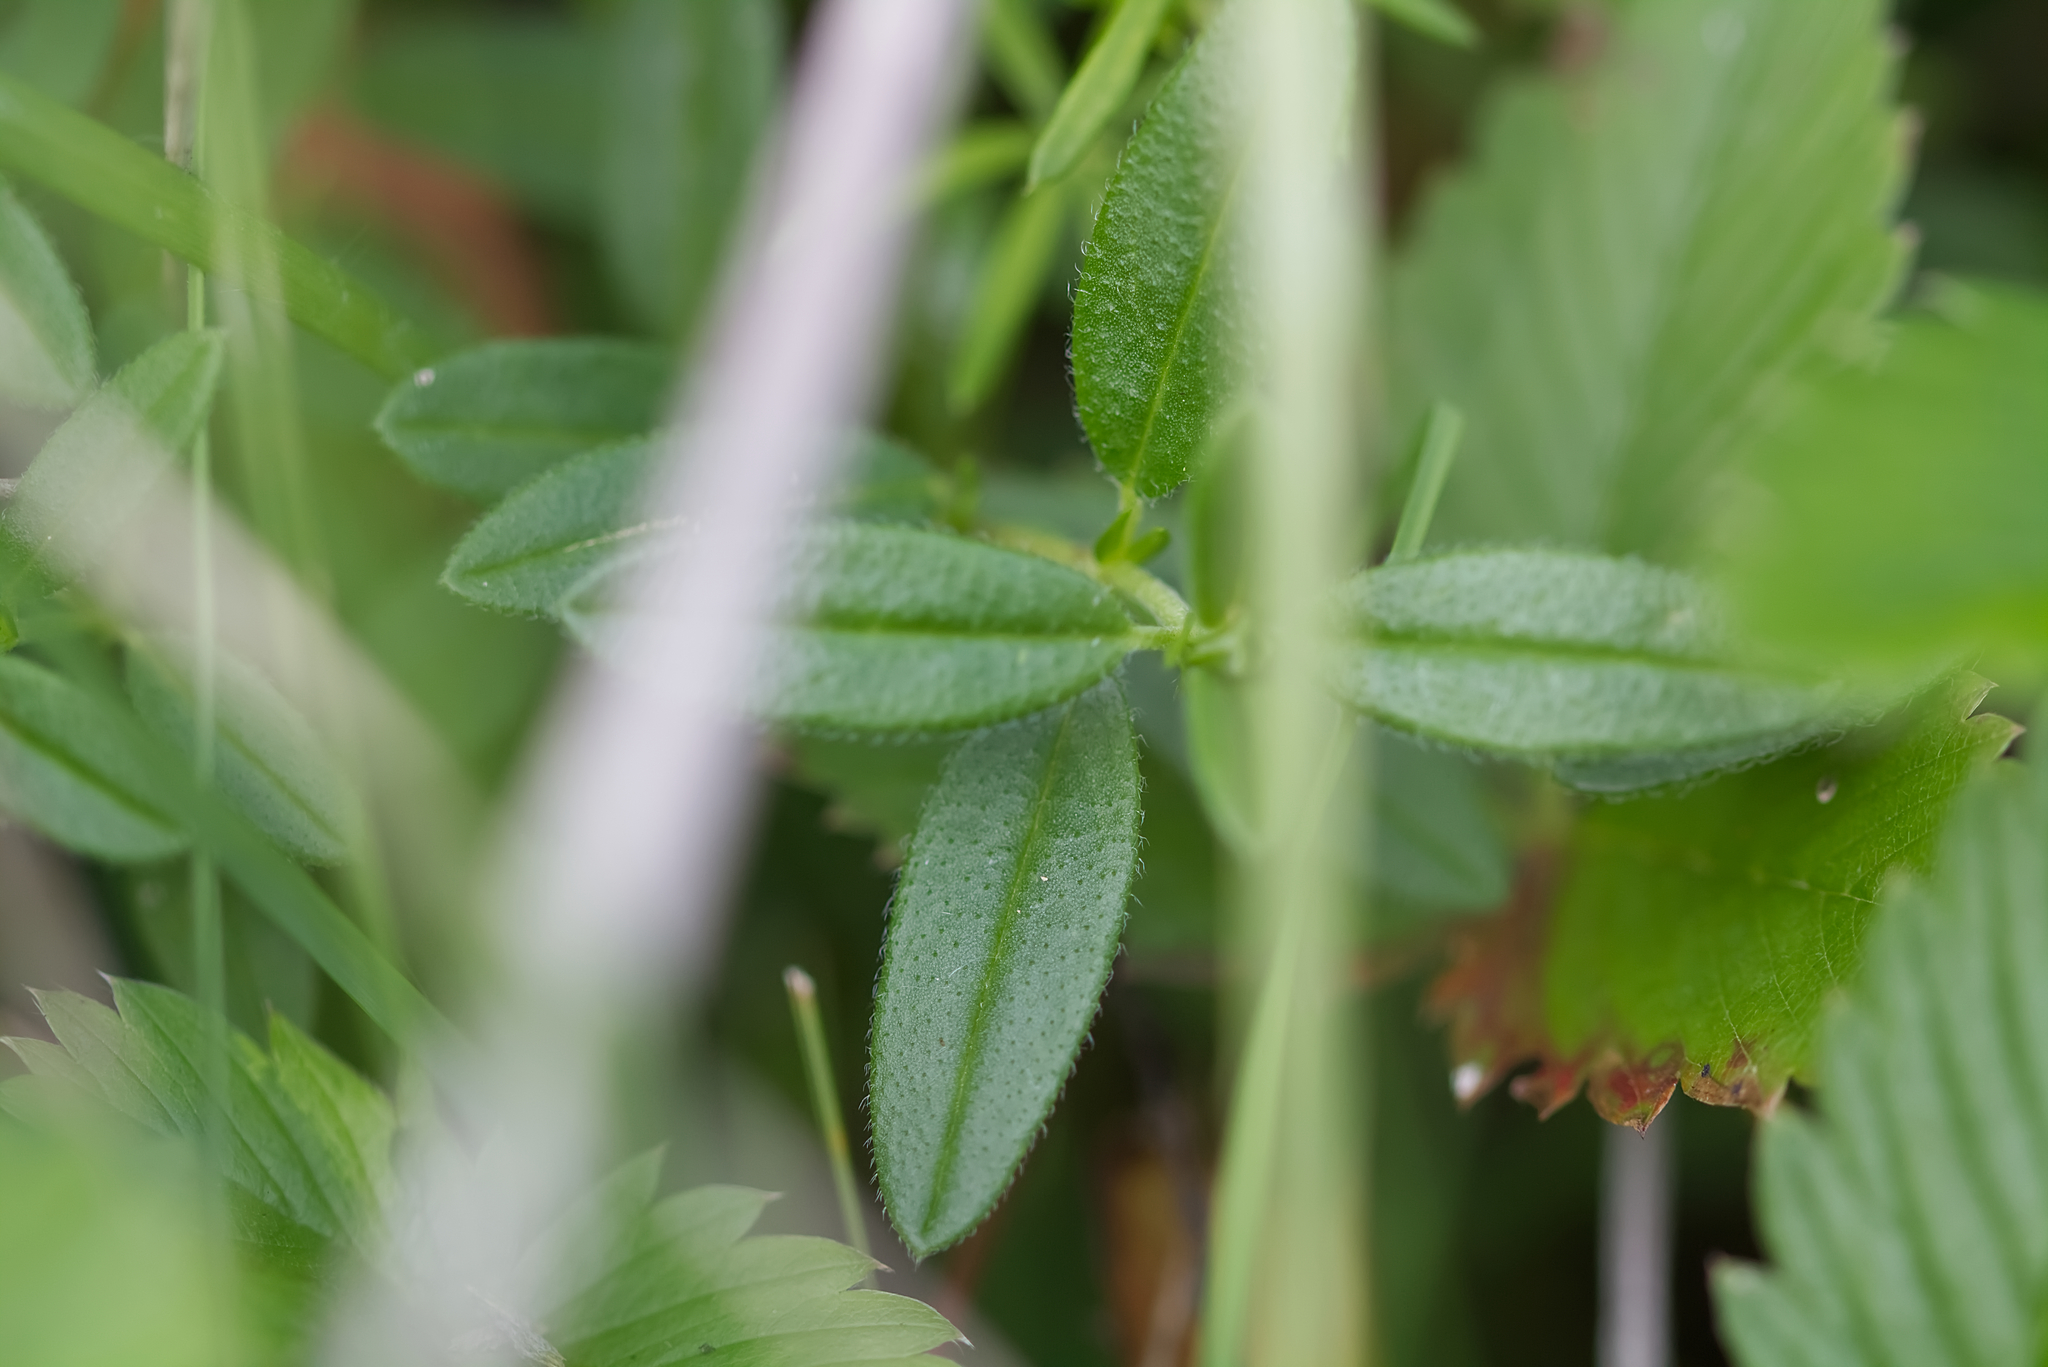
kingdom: Plantae
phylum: Tracheophyta
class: Magnoliopsida
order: Malvales
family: Cistaceae
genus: Helianthemum
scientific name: Helianthemum nummularium
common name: Common rock-rose
